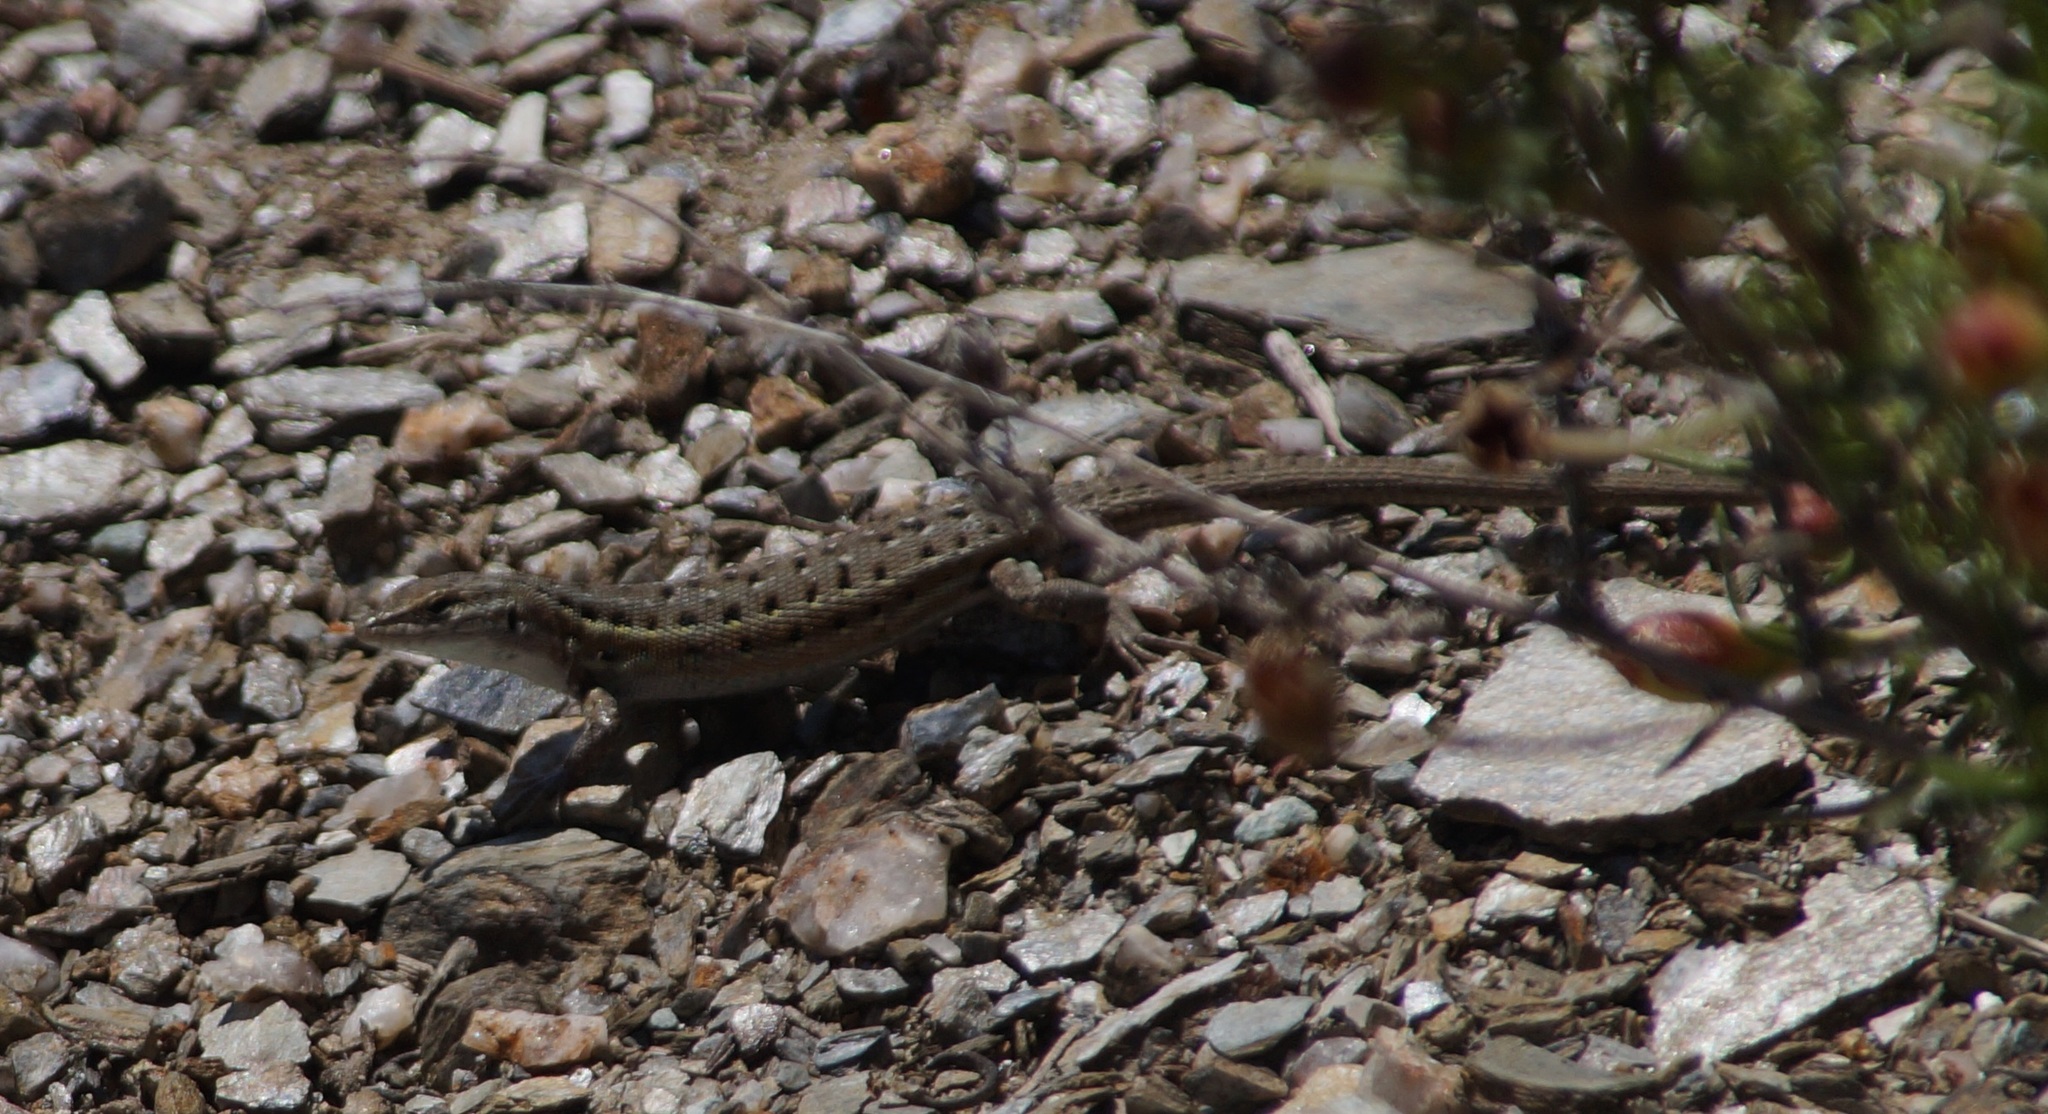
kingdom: Animalia
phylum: Chordata
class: Squamata
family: Lacertidae
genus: Psammodromus
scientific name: Psammodromus edwarsianus
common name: East iberian psammodromus
